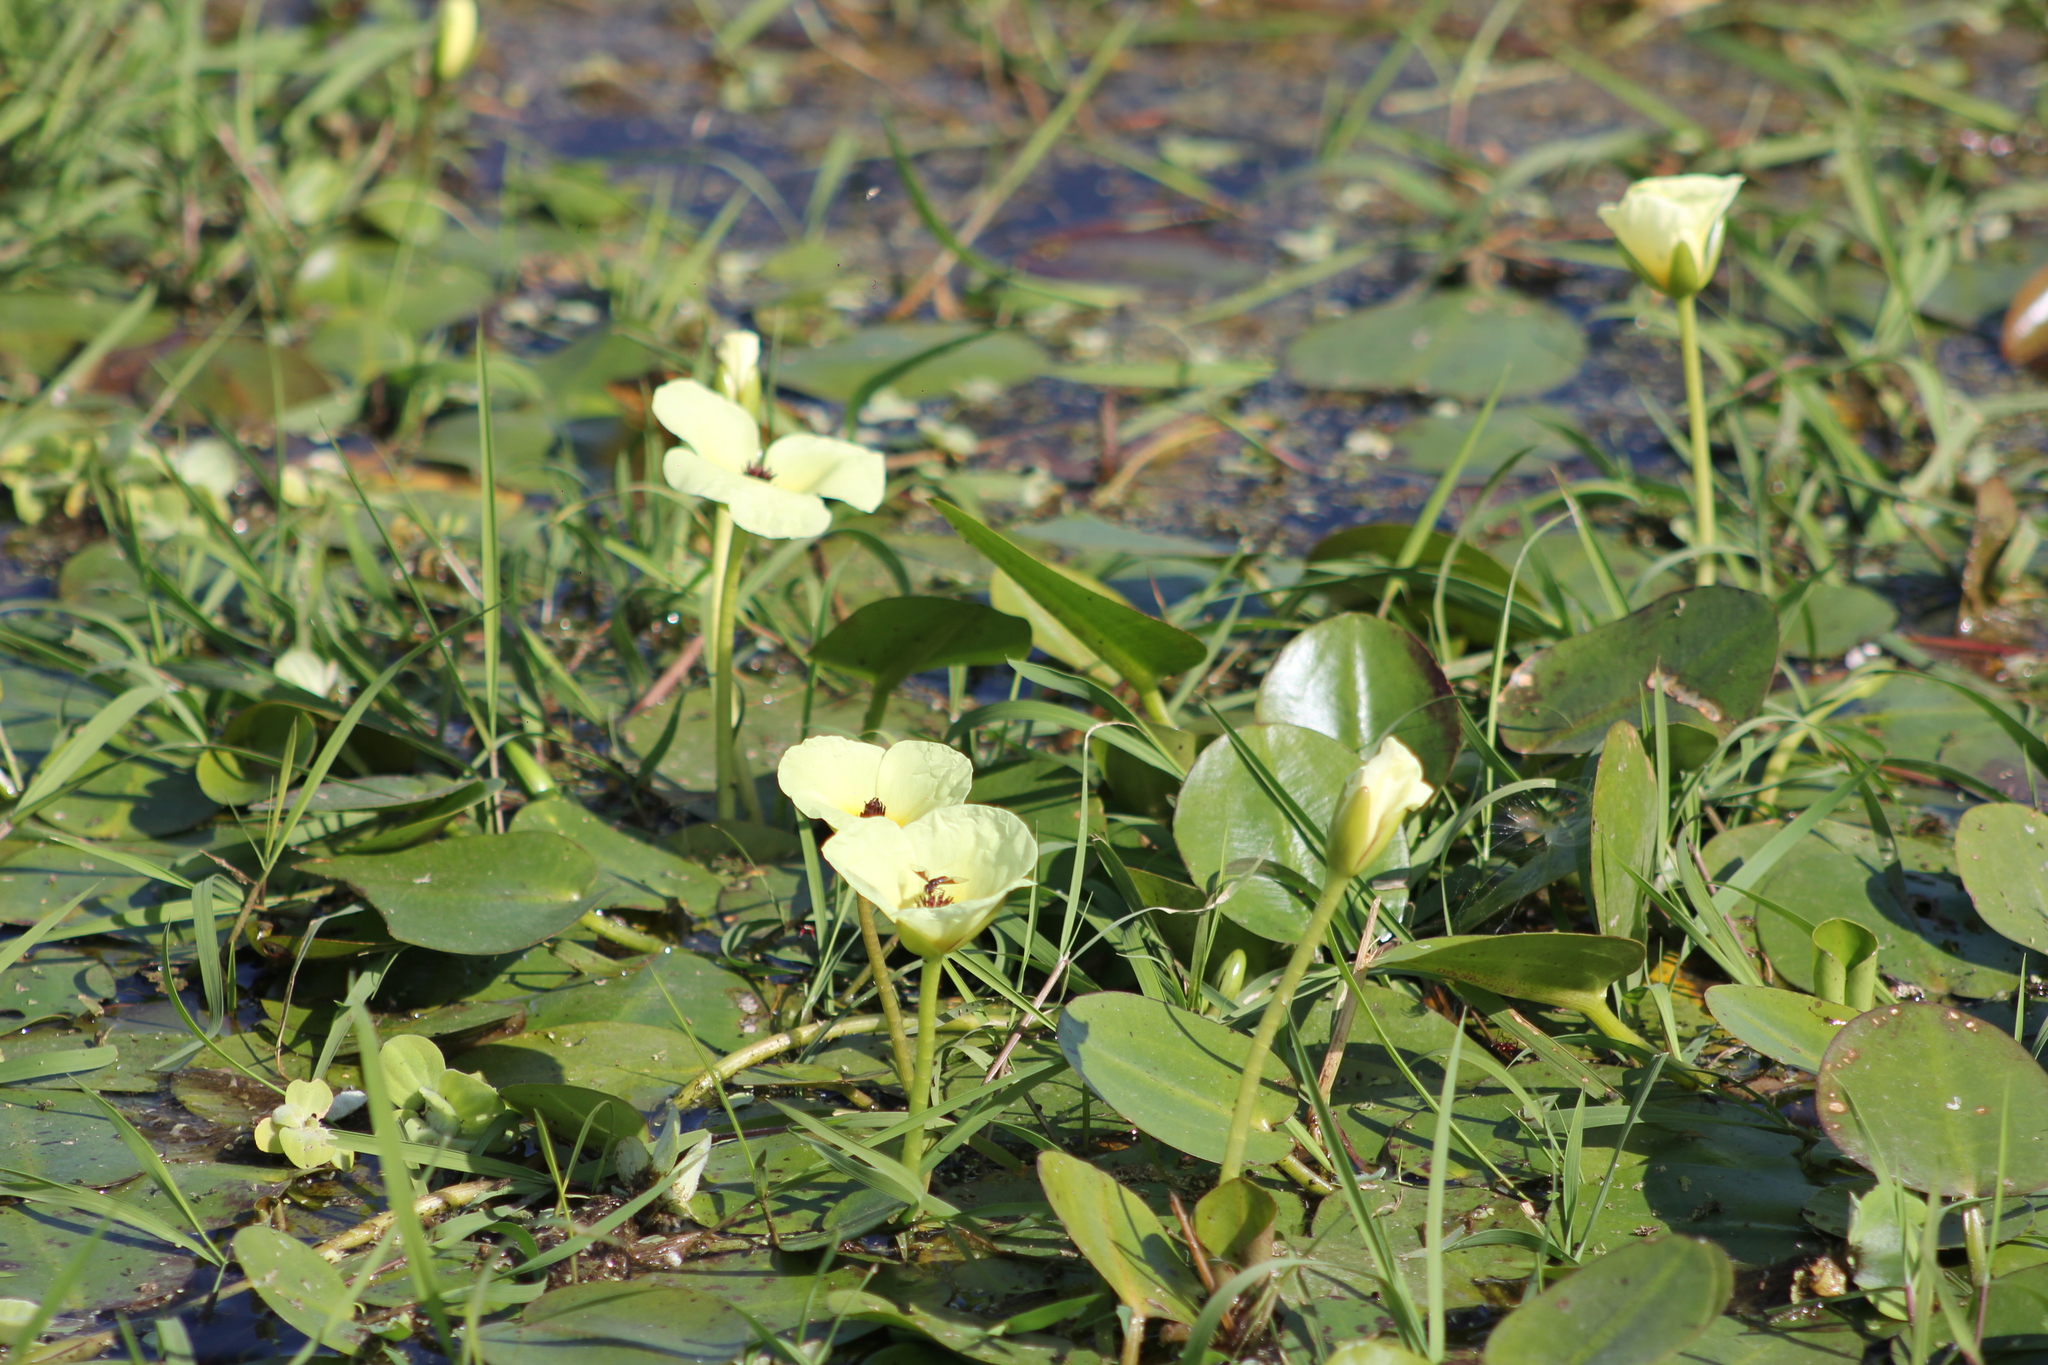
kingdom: Plantae
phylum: Tracheophyta
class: Liliopsida
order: Alismatales
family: Alismataceae
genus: Hydrocleys
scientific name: Hydrocleys nymphoides
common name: Water-poppy
